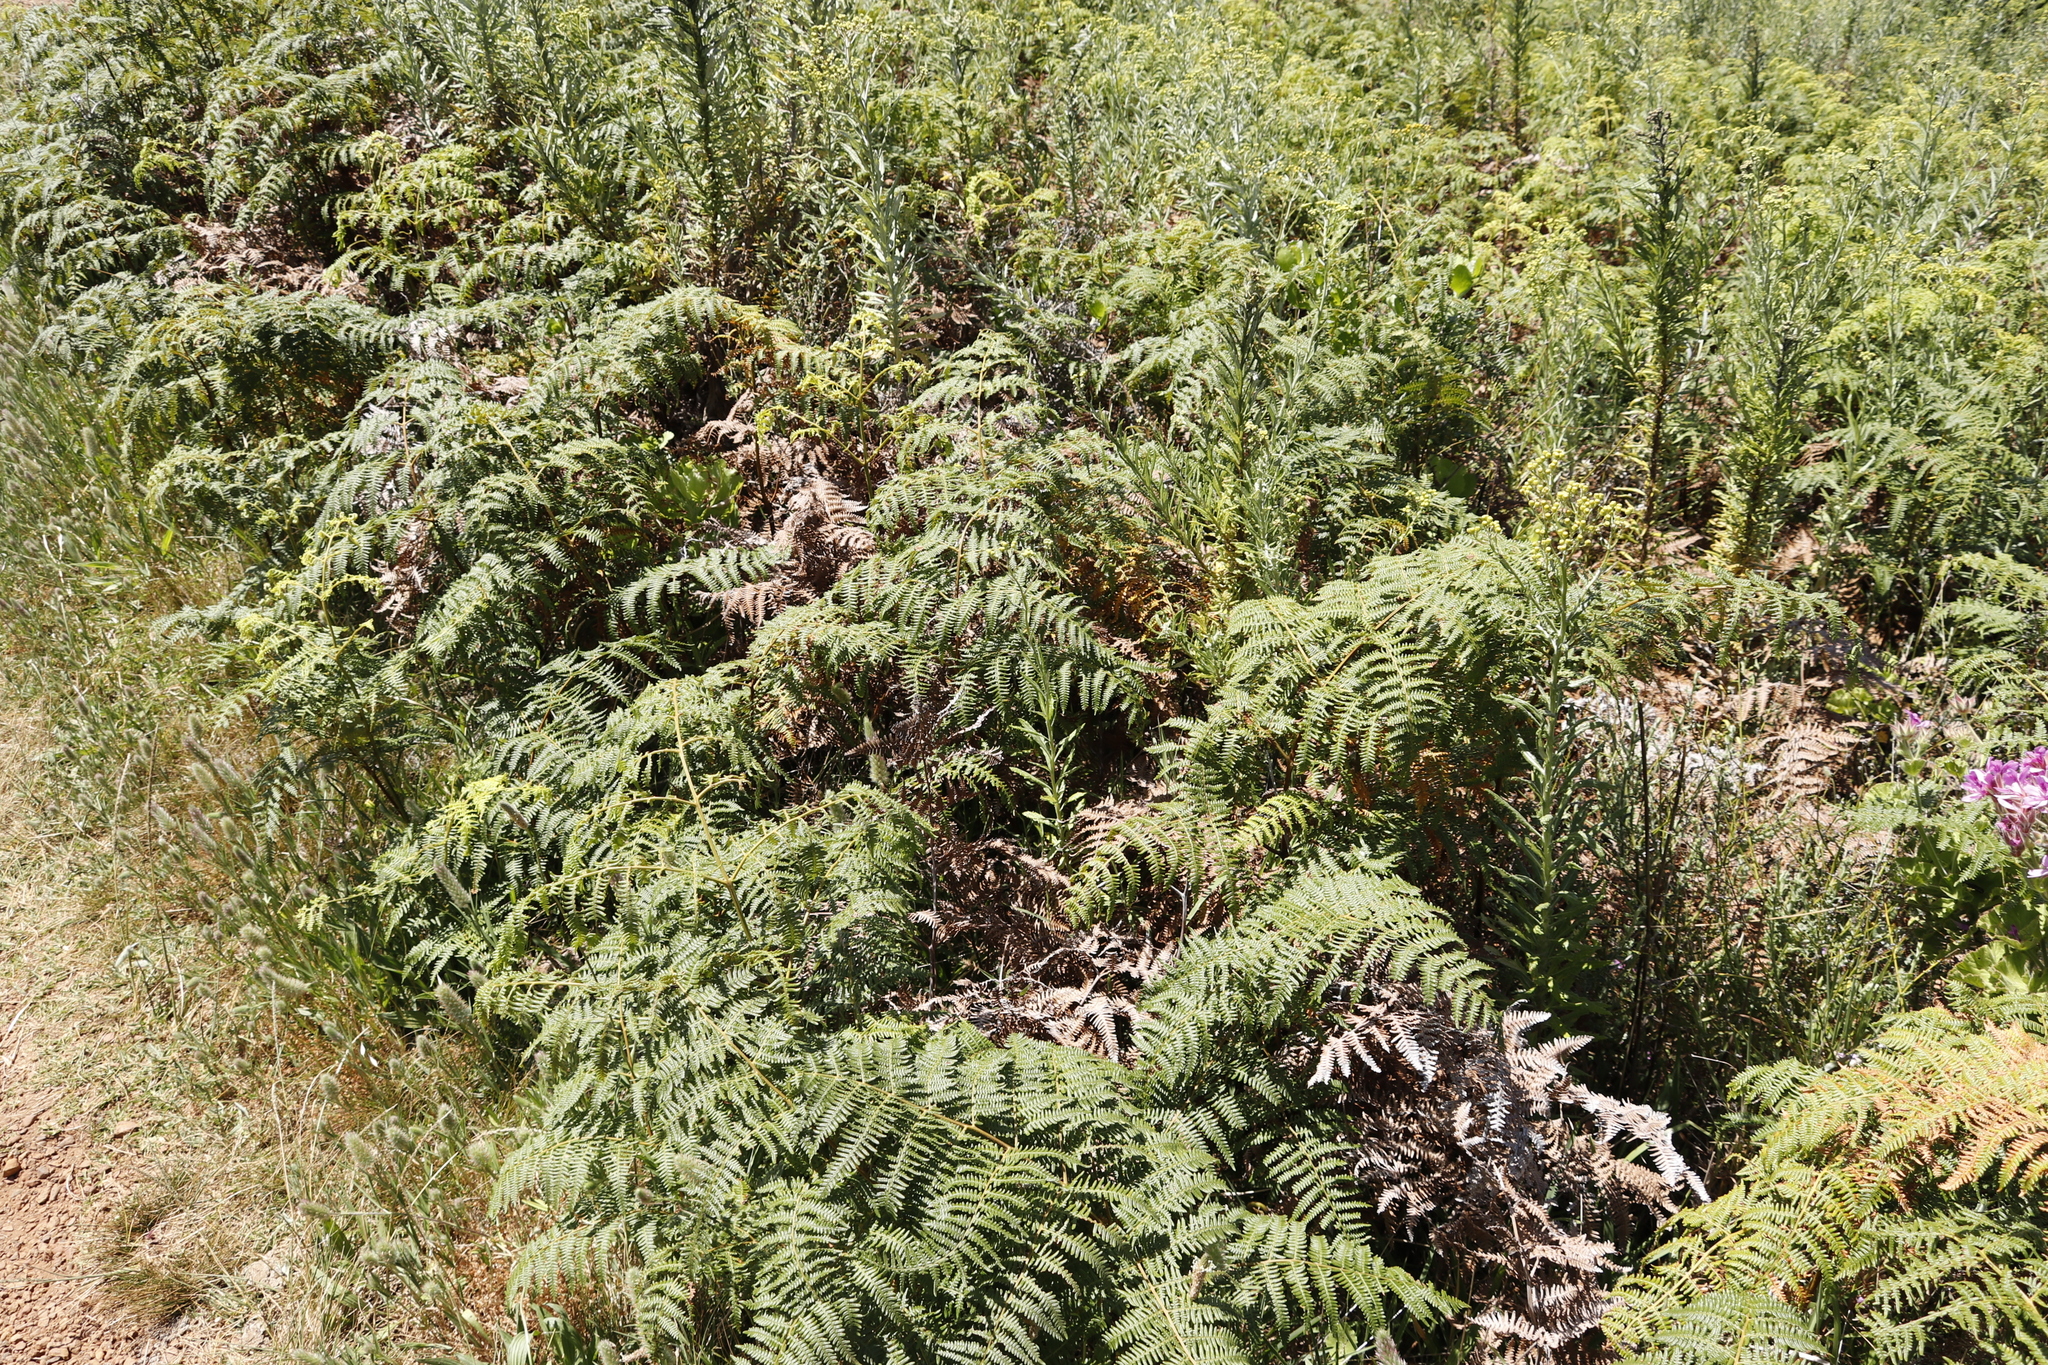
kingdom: Plantae
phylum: Tracheophyta
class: Polypodiopsida
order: Polypodiales
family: Dennstaedtiaceae
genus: Pteridium
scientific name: Pteridium aquilinum
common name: Bracken
